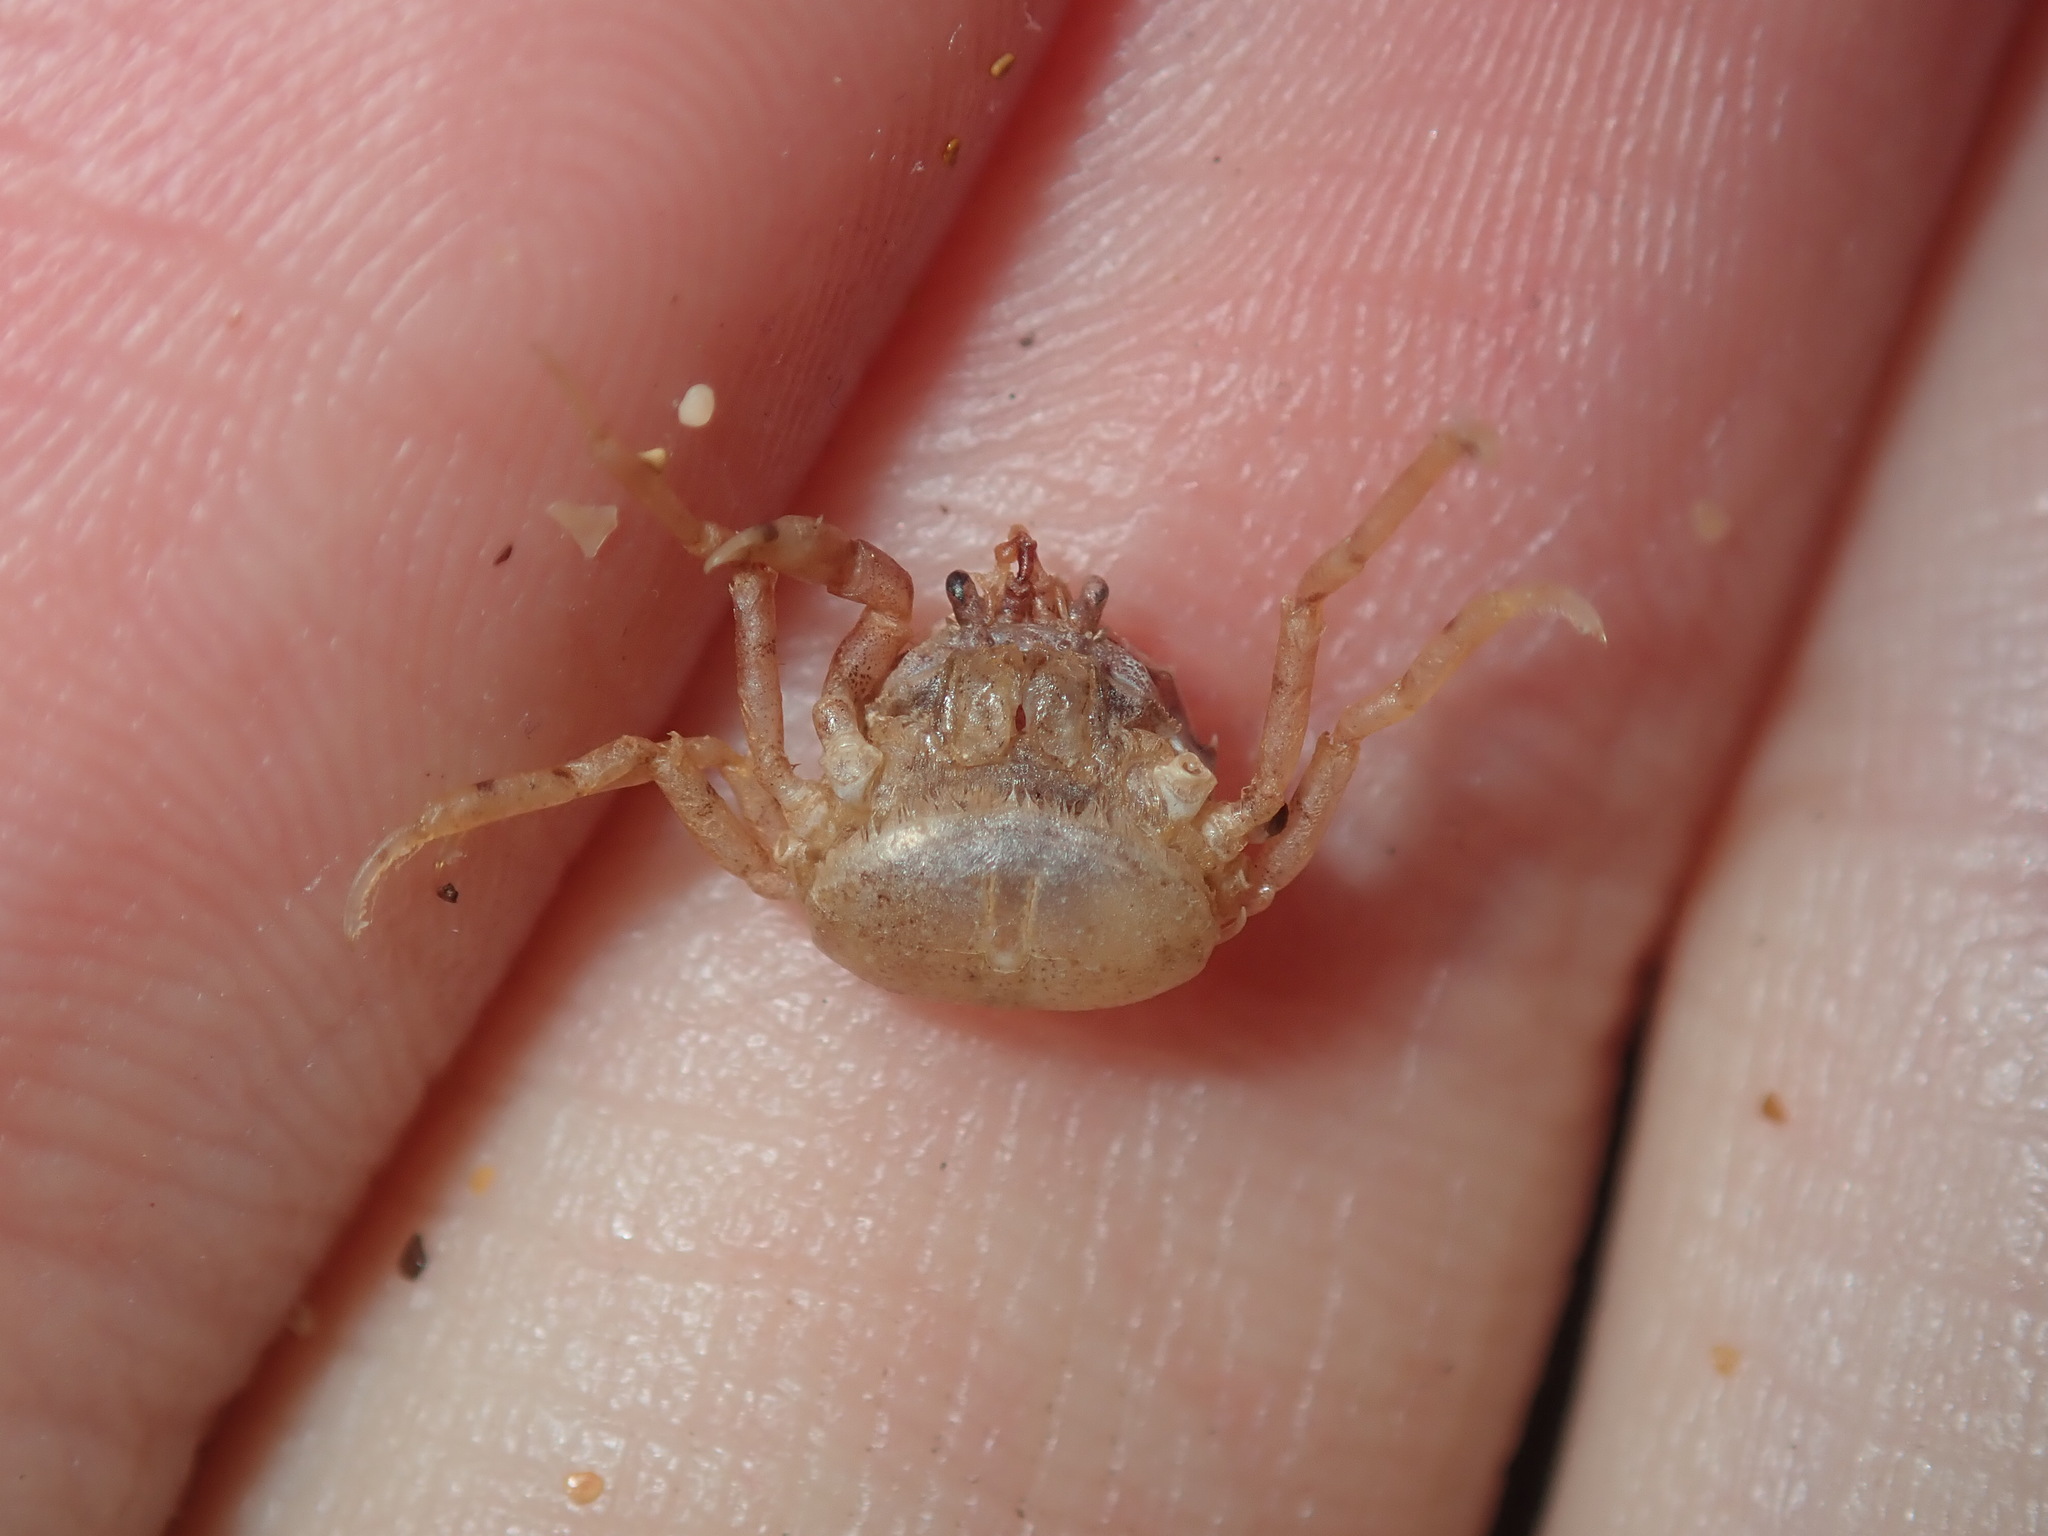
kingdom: Animalia
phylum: Arthropoda
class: Malacostraca
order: Decapoda
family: Hymenosomatidae
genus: Halicarcinus
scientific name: Halicarcinus ovatus
